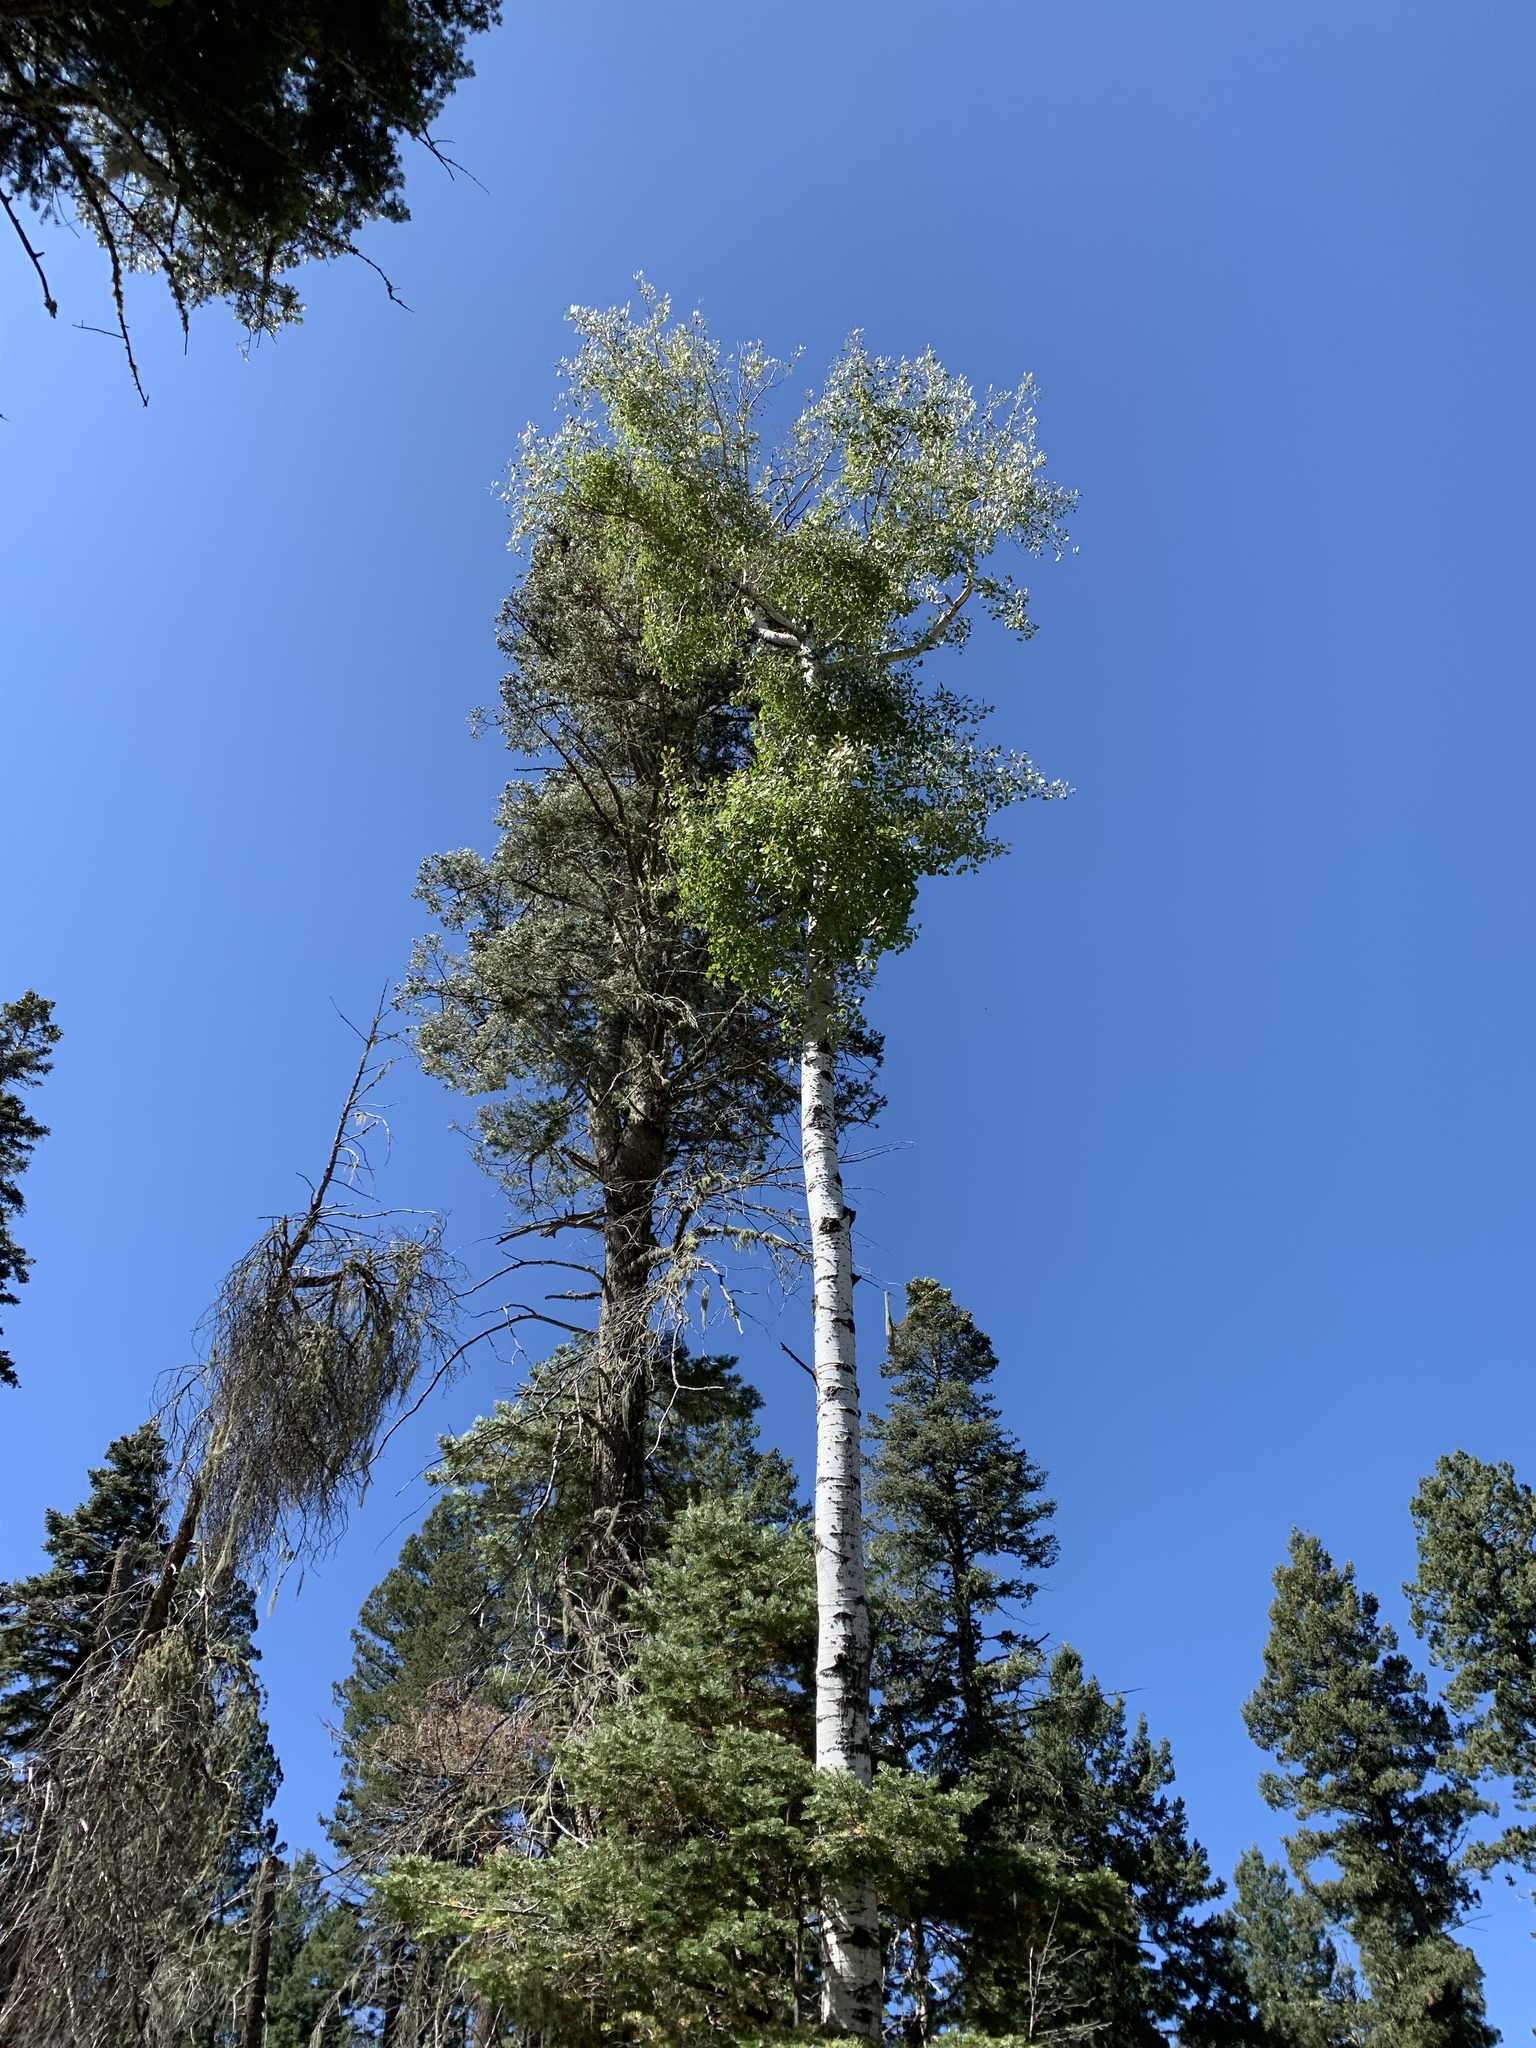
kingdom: Plantae
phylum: Tracheophyta
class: Magnoliopsida
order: Malpighiales
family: Salicaceae
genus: Populus
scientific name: Populus tremuloides
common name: Quaking aspen
